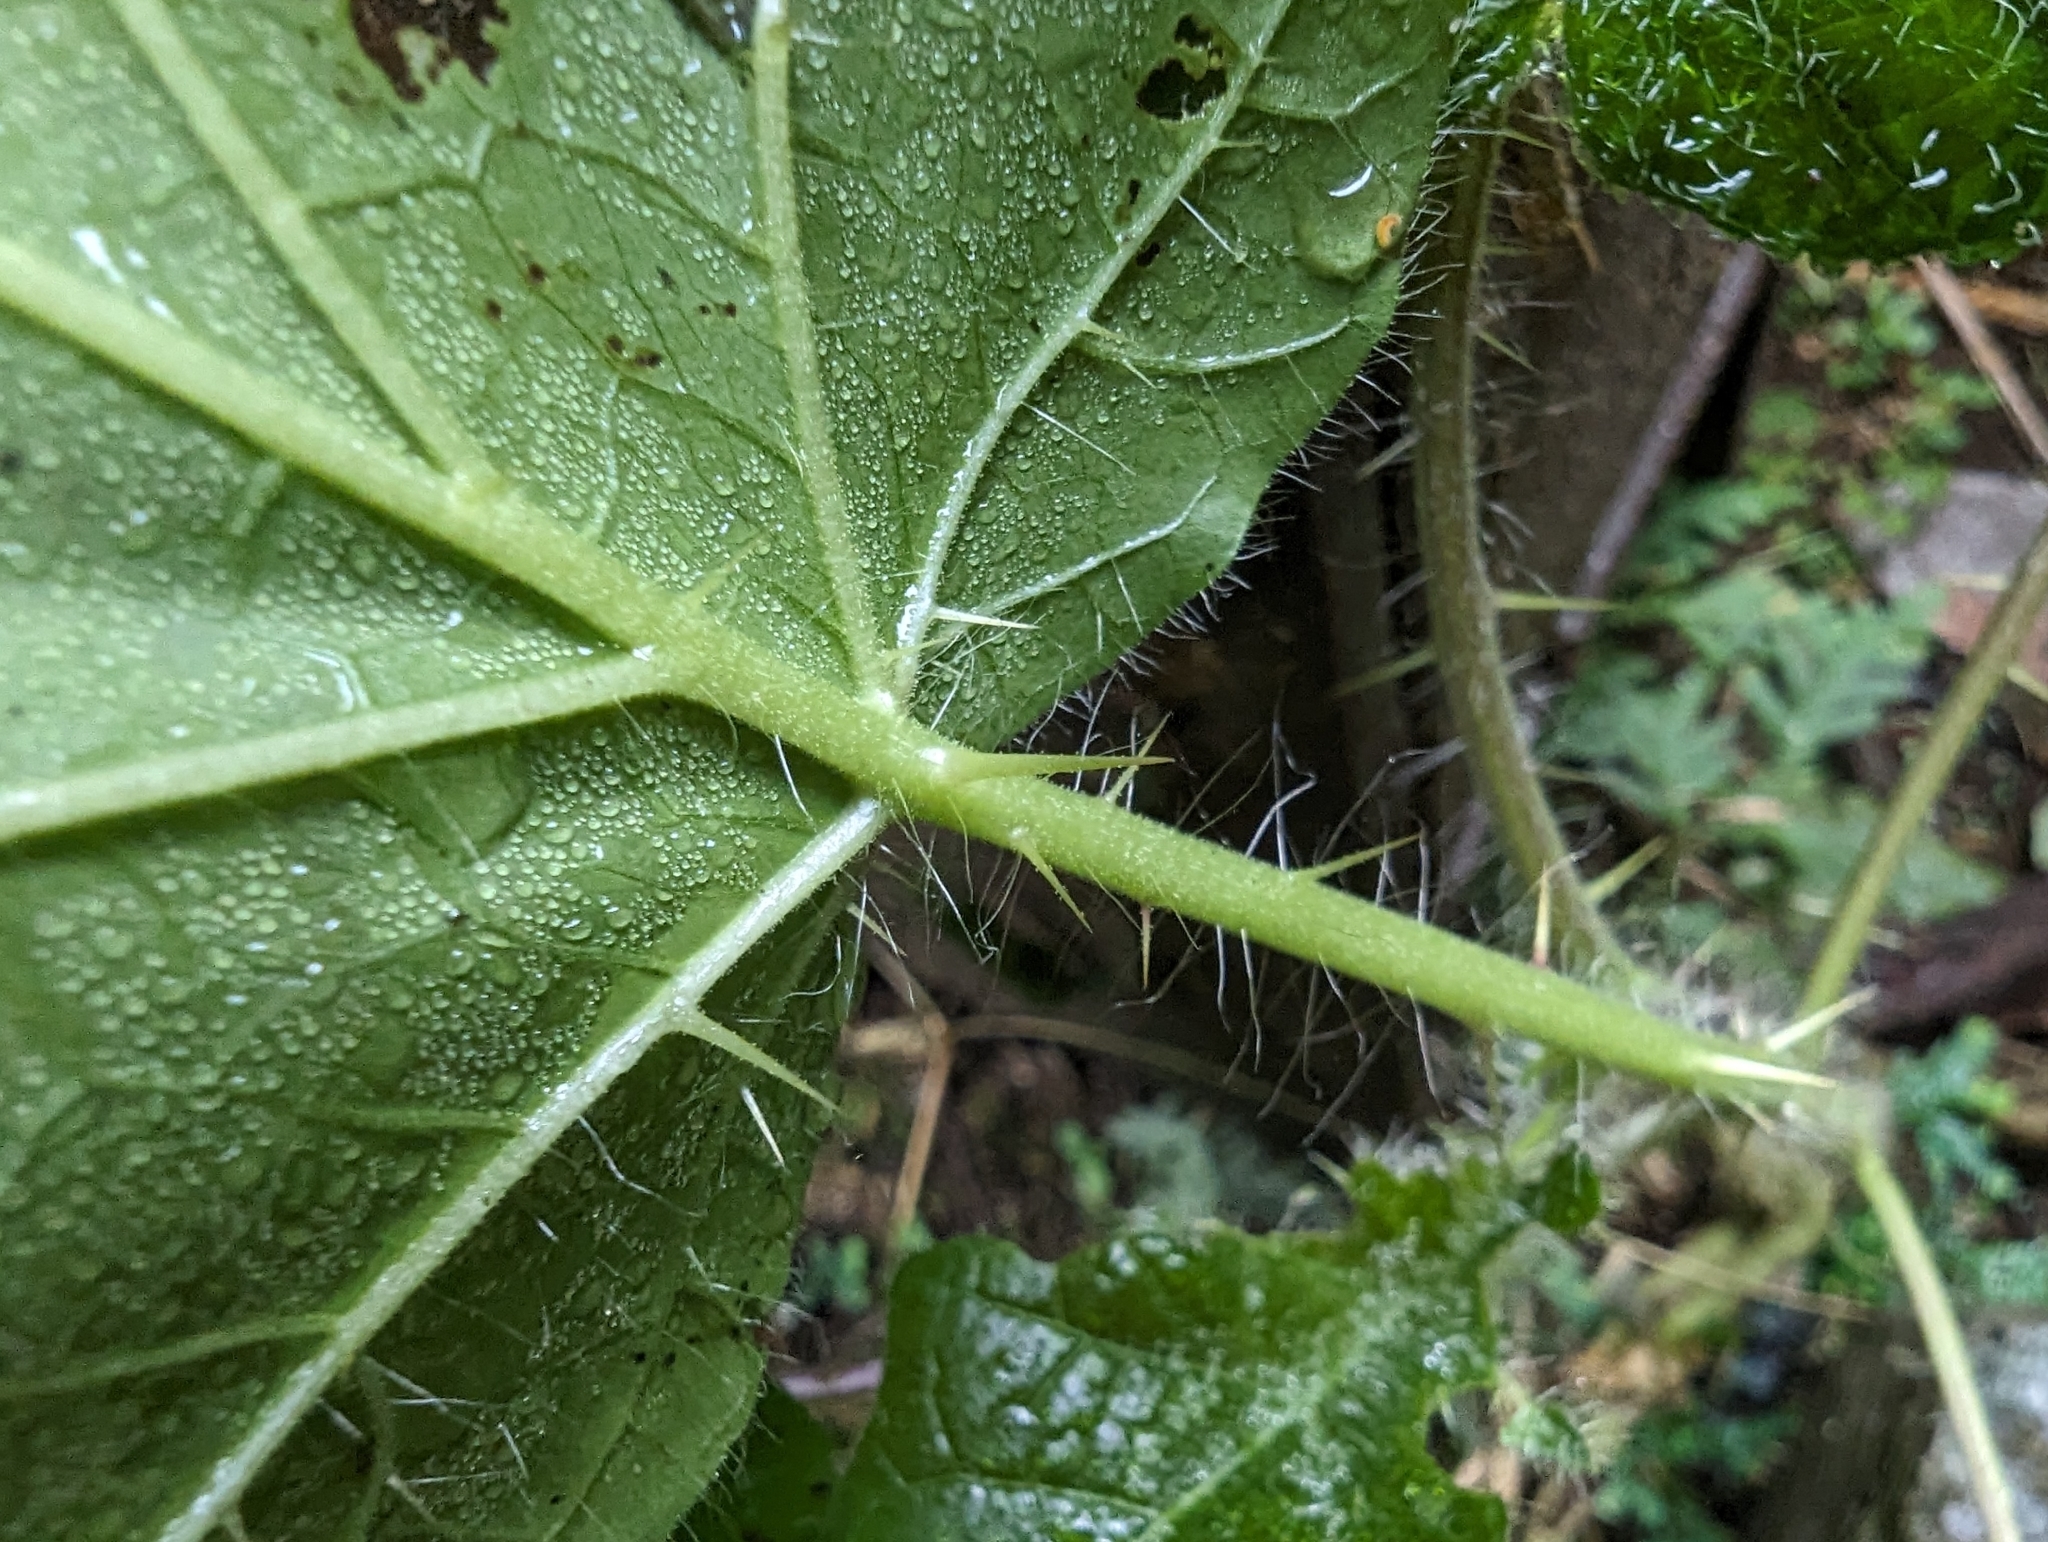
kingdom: Plantae
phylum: Tracheophyta
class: Magnoliopsida
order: Solanales
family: Solanaceae
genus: Solanum
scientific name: Solanum capsicoides
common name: Cockroach berry
